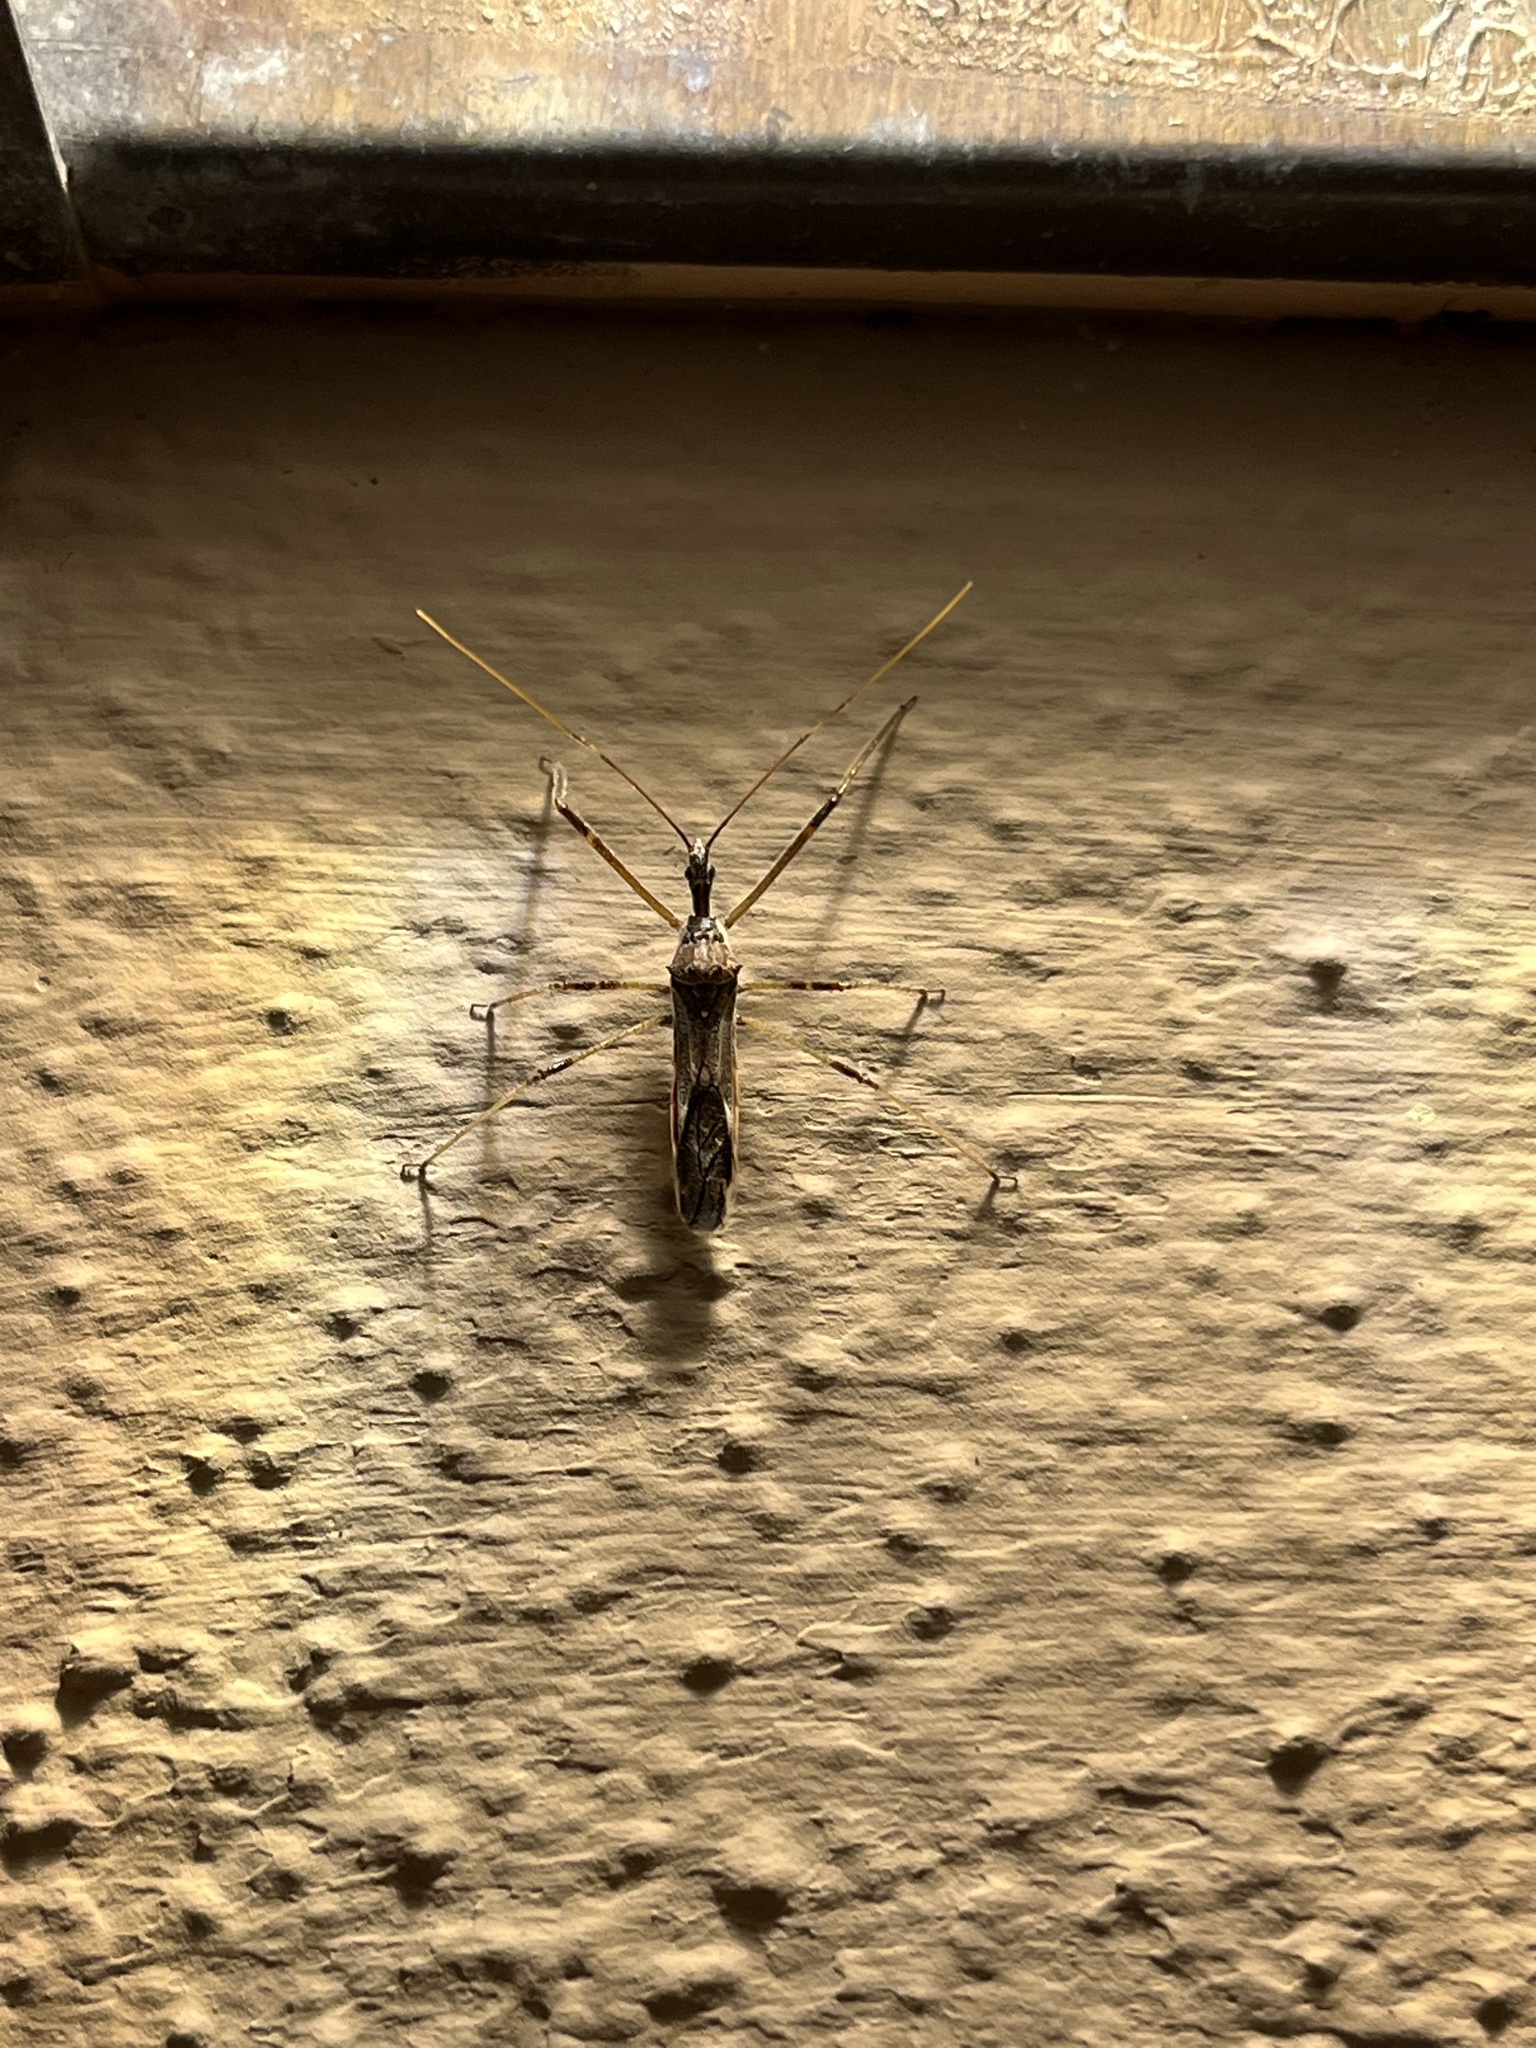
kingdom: Animalia
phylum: Arthropoda
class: Insecta
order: Hemiptera
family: Reduviidae
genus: Zelus
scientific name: Zelus tetracanthus
